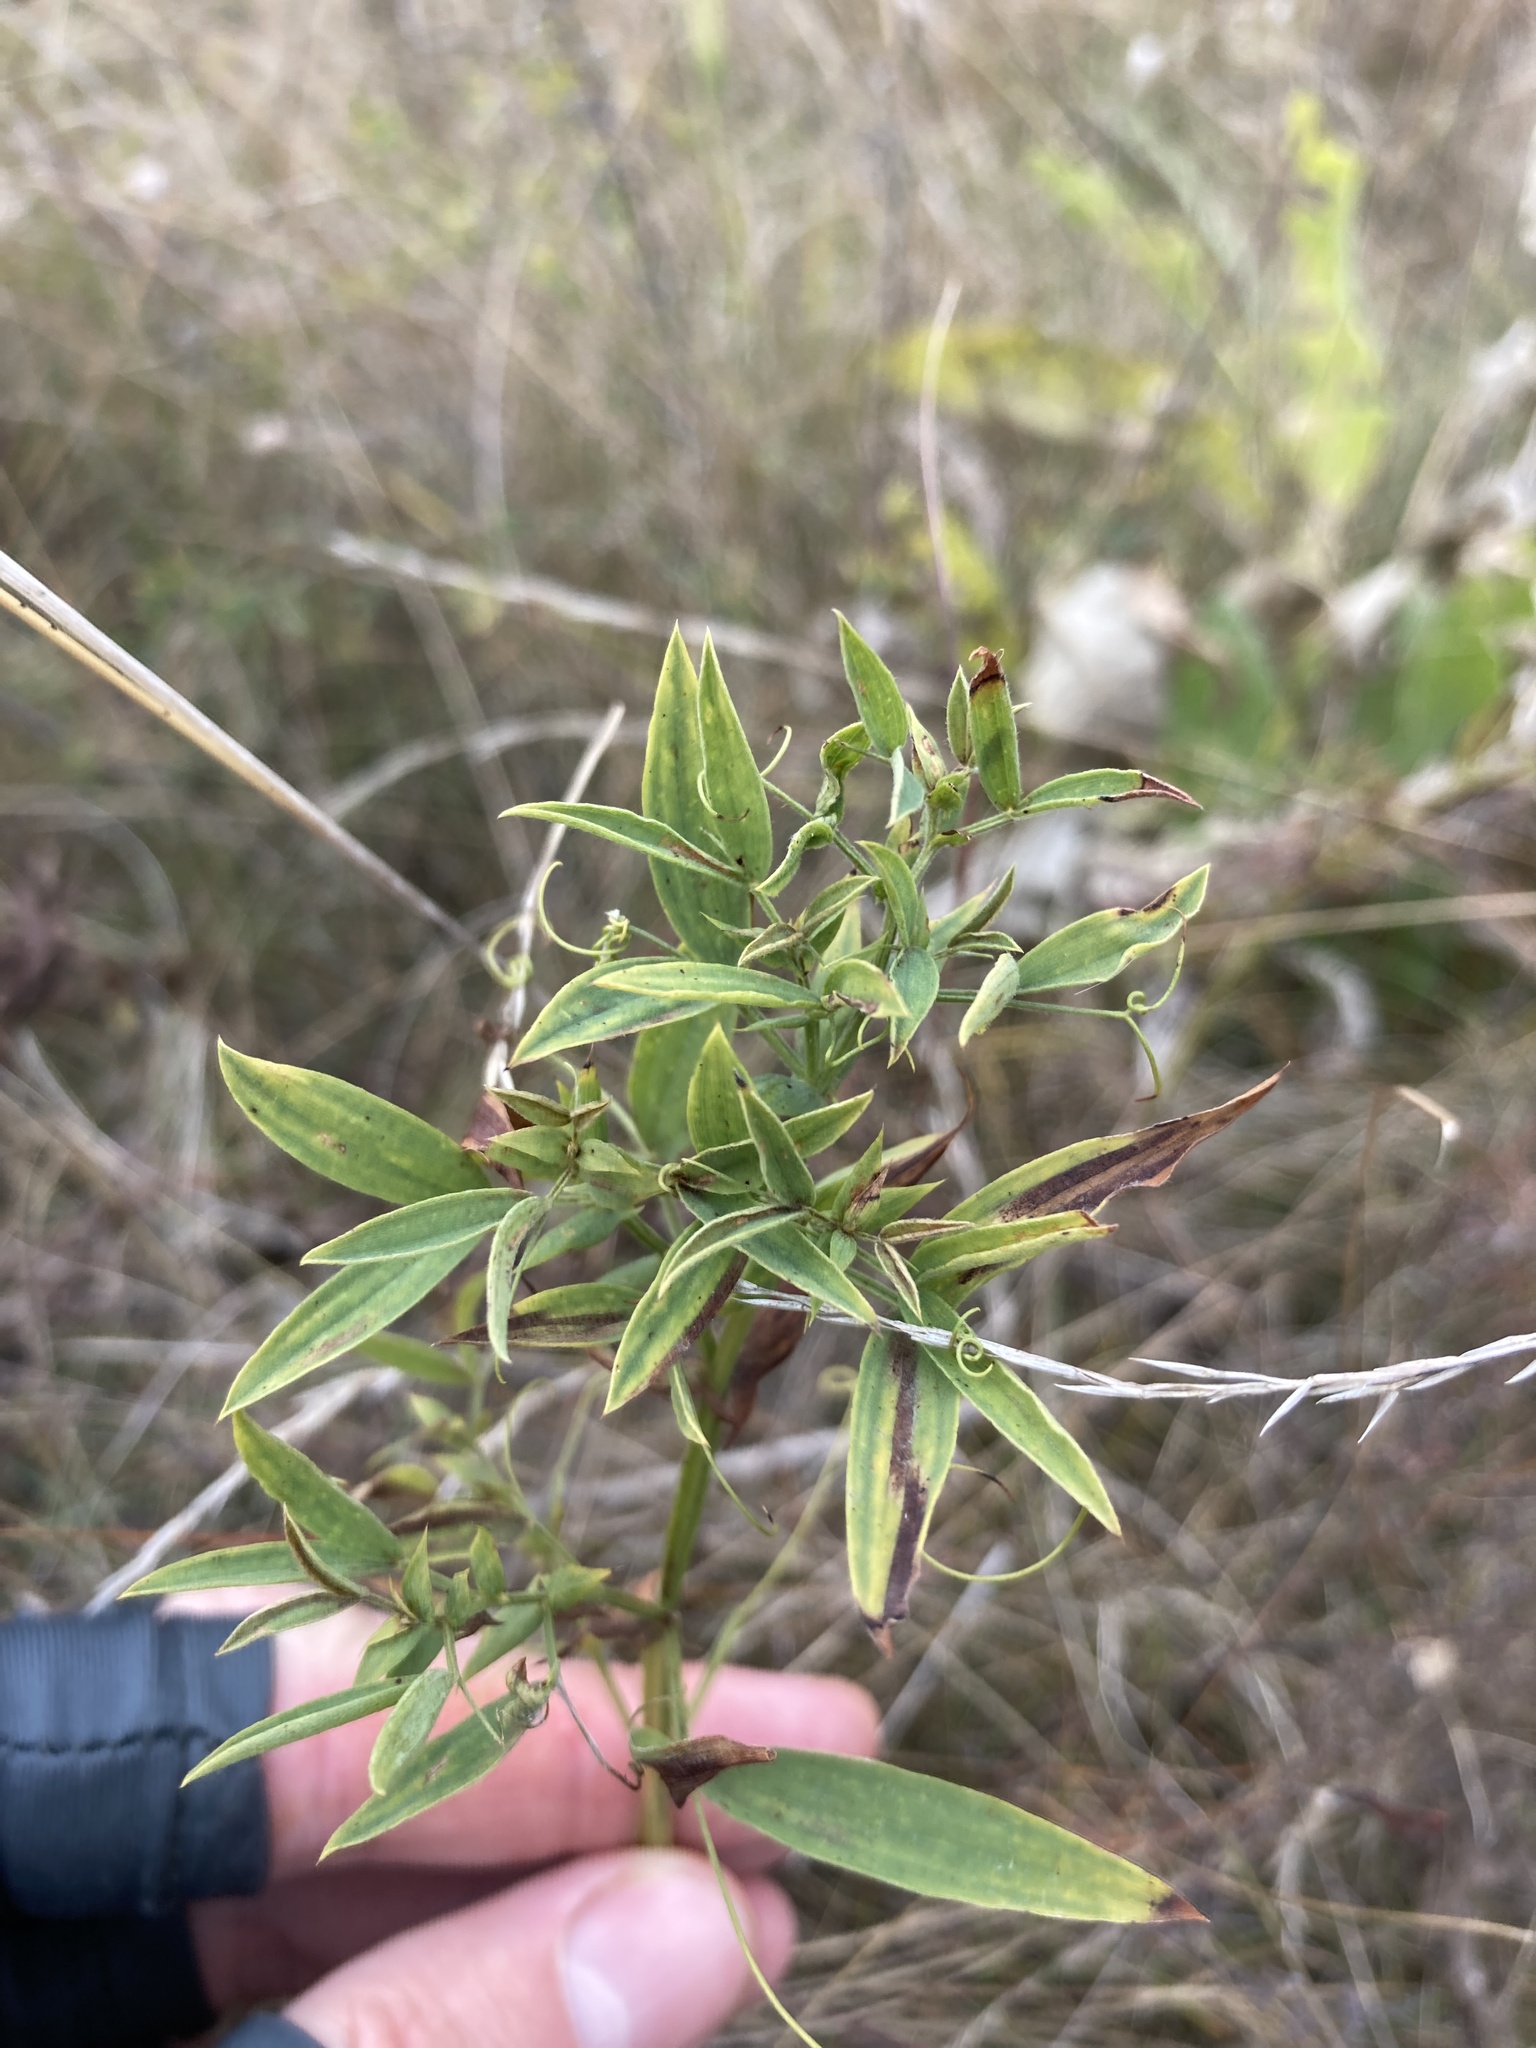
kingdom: Plantae
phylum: Tracheophyta
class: Magnoliopsida
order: Fabales
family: Fabaceae
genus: Lathyrus
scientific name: Lathyrus pratensis
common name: Meadow vetchling
